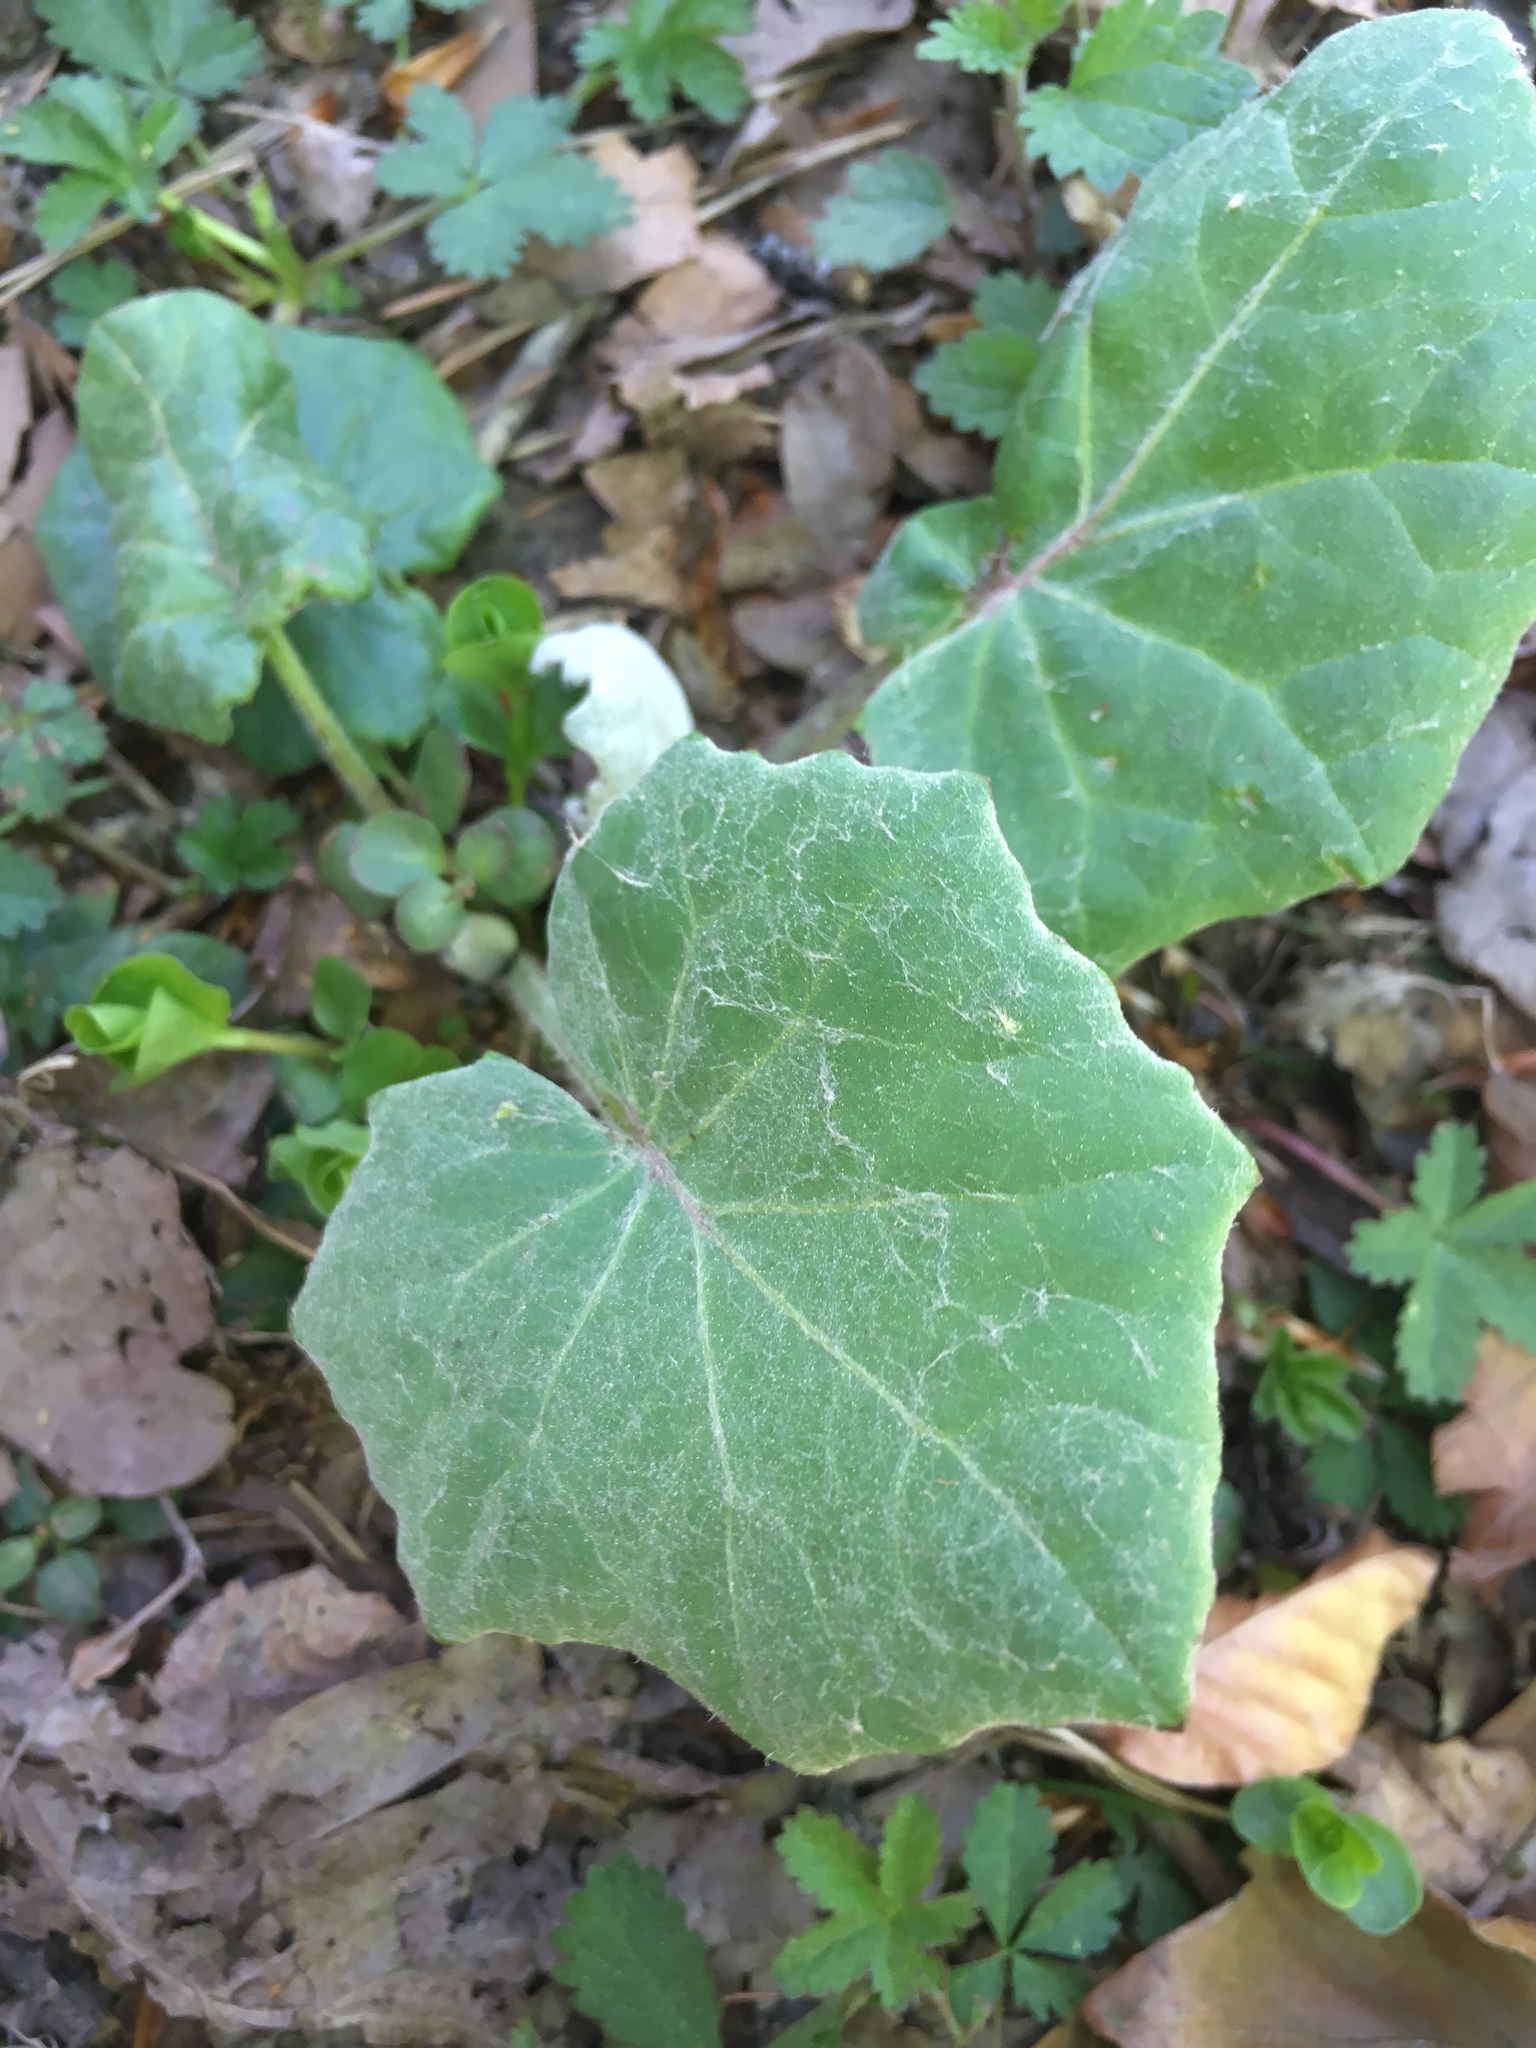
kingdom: Plantae
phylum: Tracheophyta
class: Magnoliopsida
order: Asterales
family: Asteraceae
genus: Tussilago
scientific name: Tussilago farfara
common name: Coltsfoot
